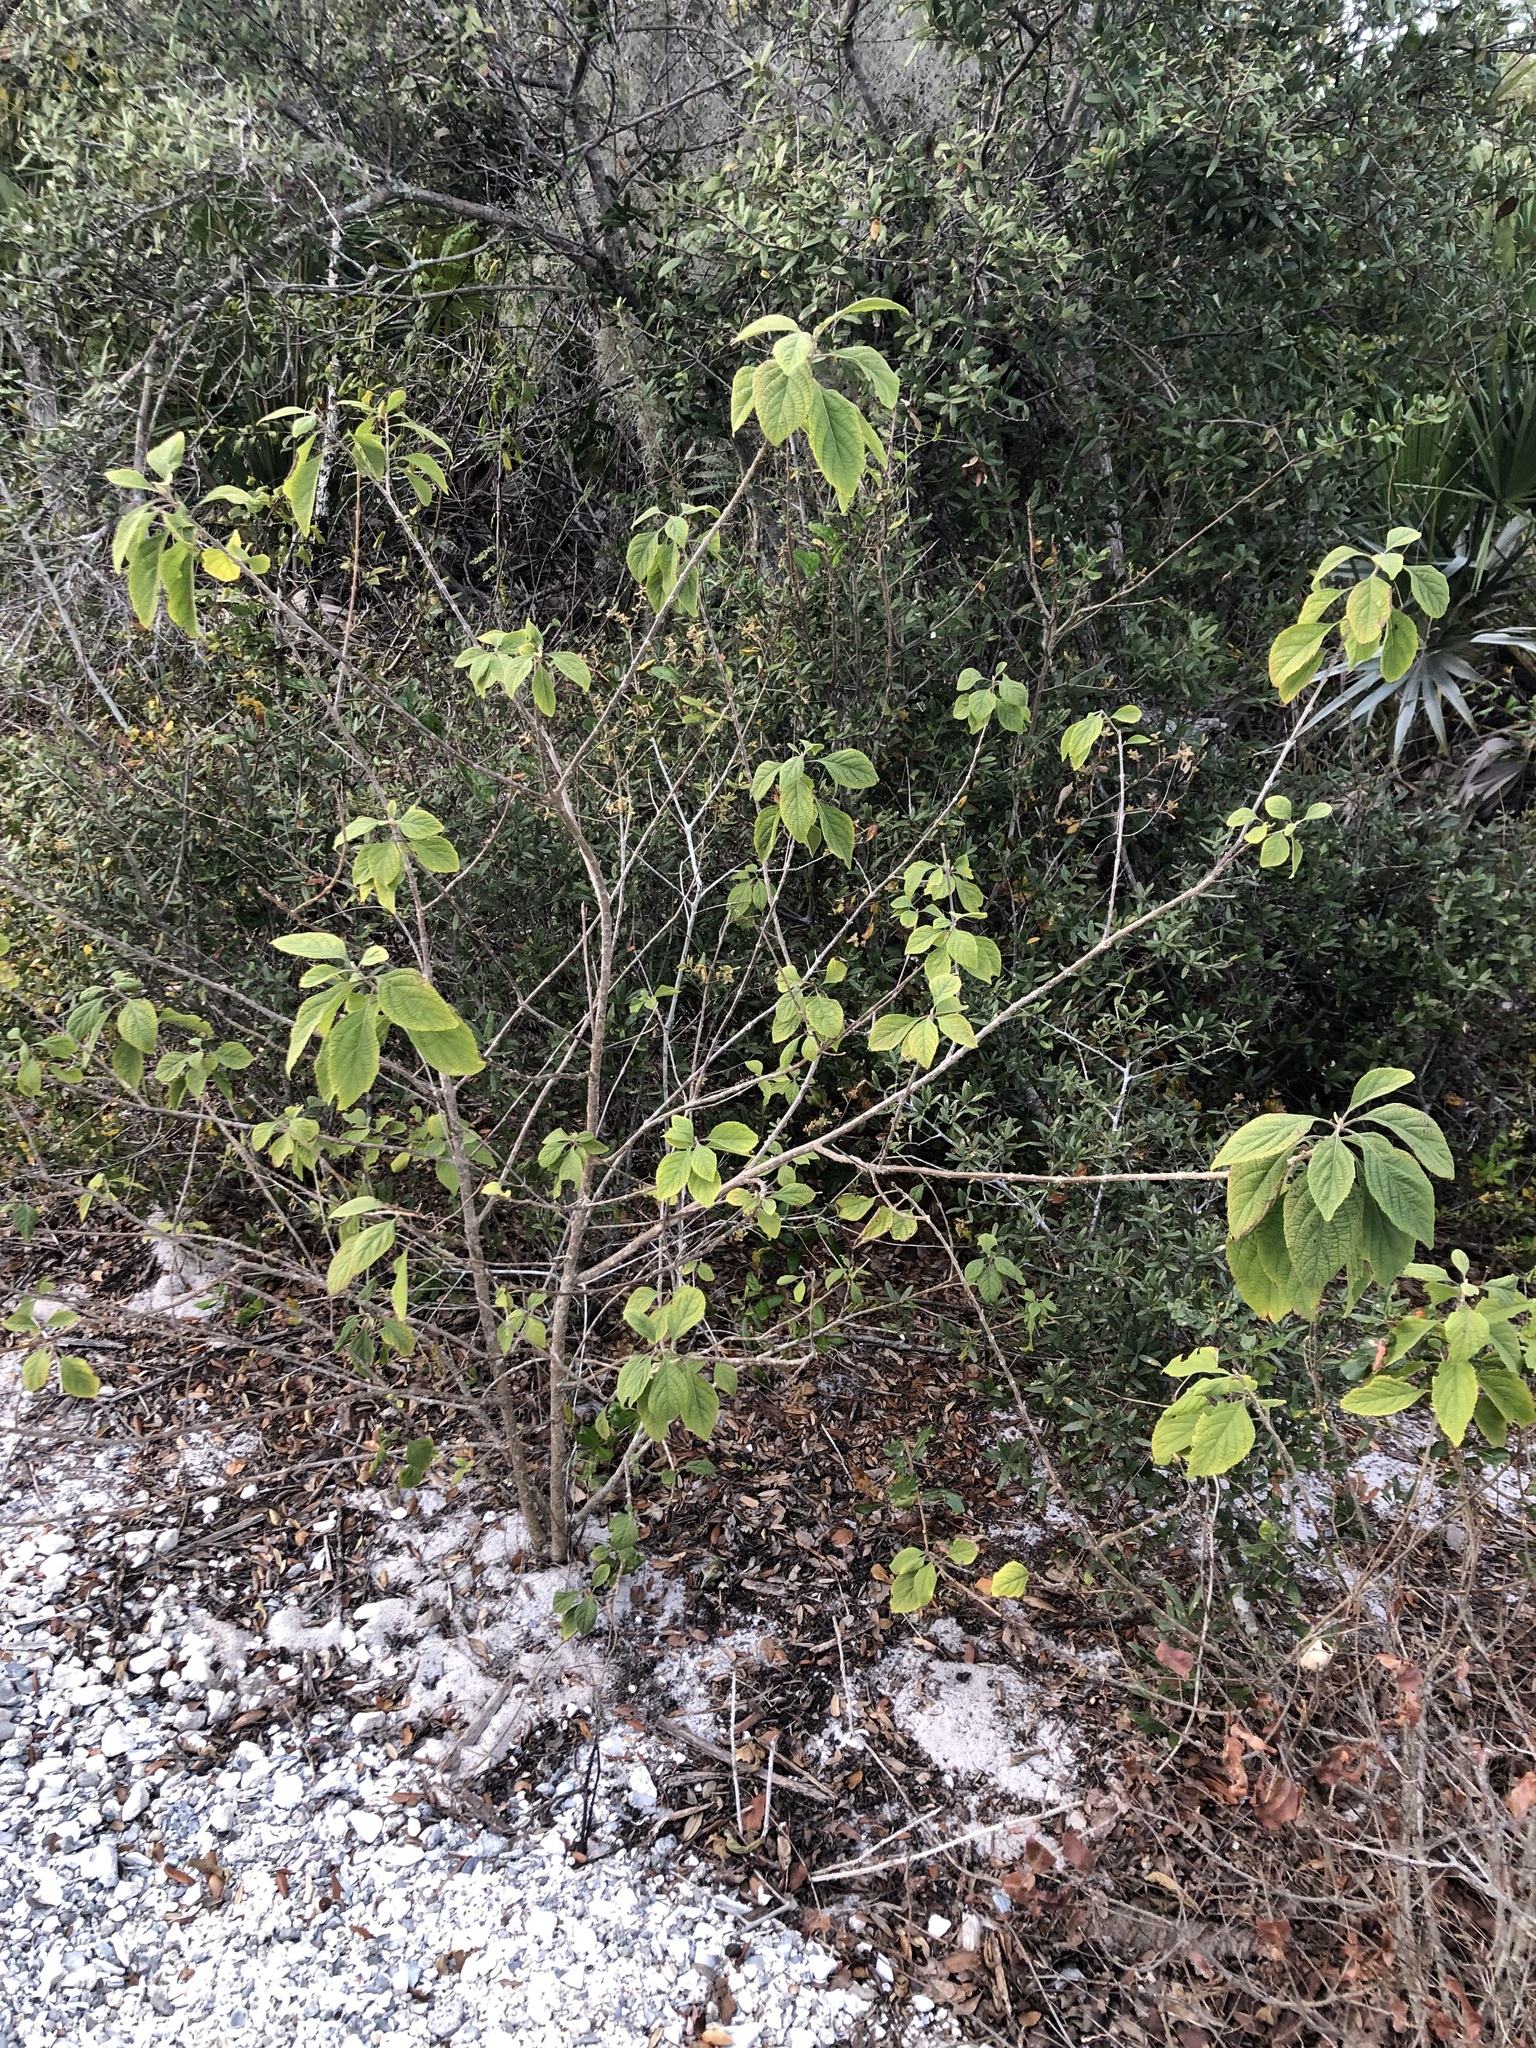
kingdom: Plantae
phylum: Tracheophyta
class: Magnoliopsida
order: Lamiales
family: Lamiaceae
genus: Callicarpa
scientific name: Callicarpa americana
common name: American beautyberry
